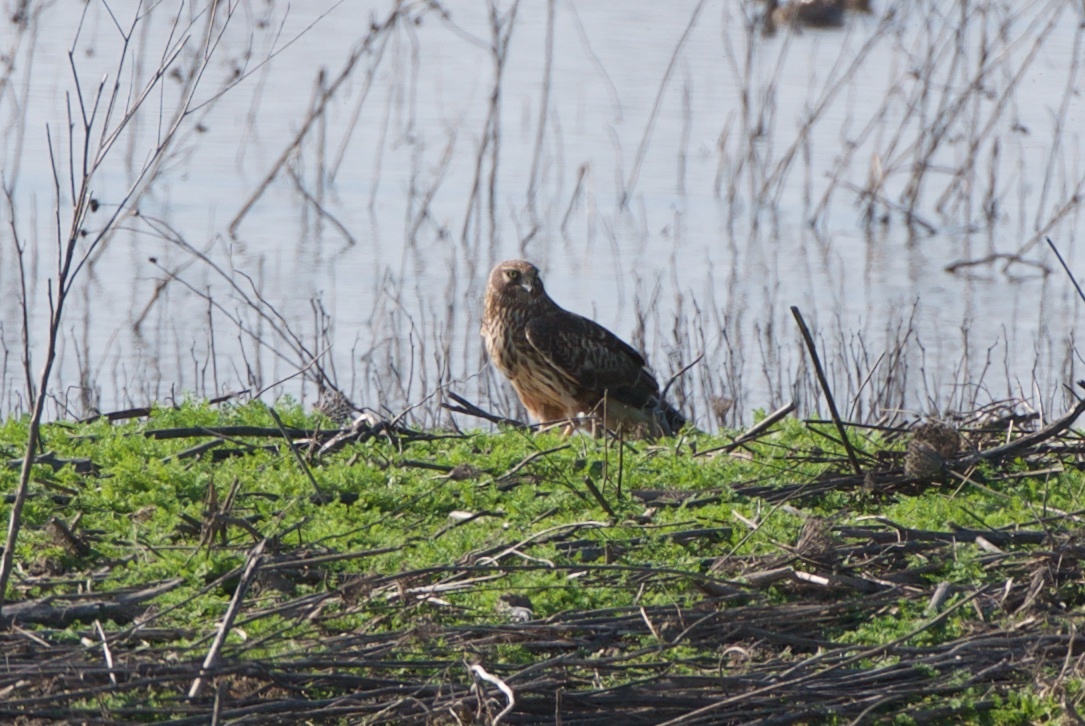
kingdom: Animalia
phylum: Chordata
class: Aves
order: Accipitriformes
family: Accipitridae
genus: Circus
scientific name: Circus cyaneus
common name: Hen harrier
